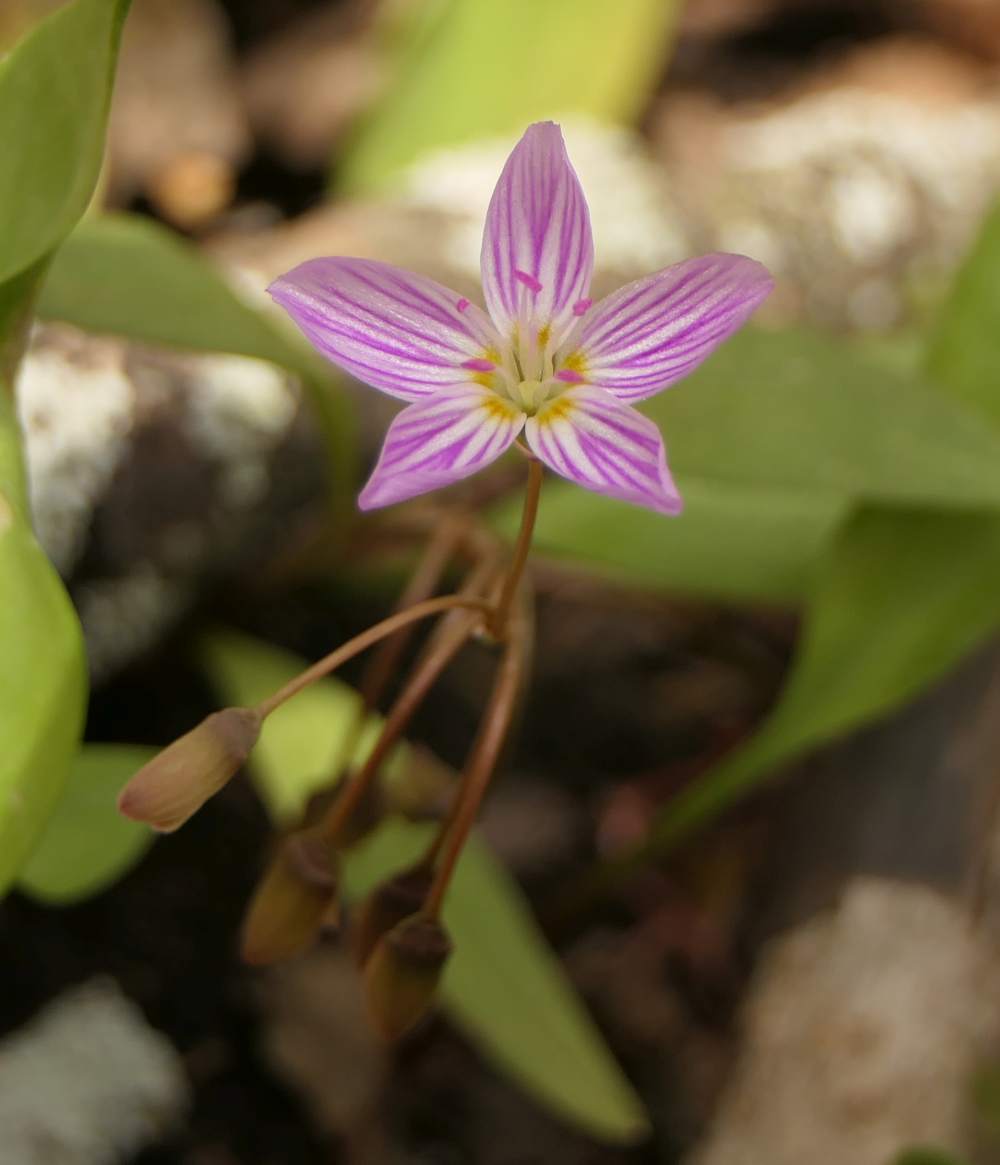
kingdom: Plantae
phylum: Tracheophyta
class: Magnoliopsida
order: Caryophyllales
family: Montiaceae
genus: Claytonia
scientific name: Claytonia caroliniana
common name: Carolina spring beauty
